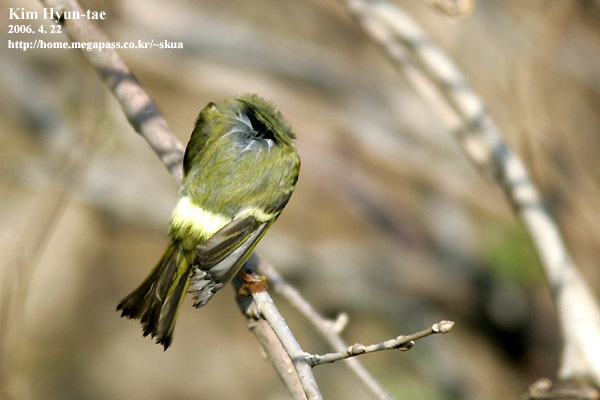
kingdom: Animalia
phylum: Chordata
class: Aves
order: Passeriformes
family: Phylloscopidae
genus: Phylloscopus
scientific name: Phylloscopus proregulus
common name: Pallas's leaf warbler
